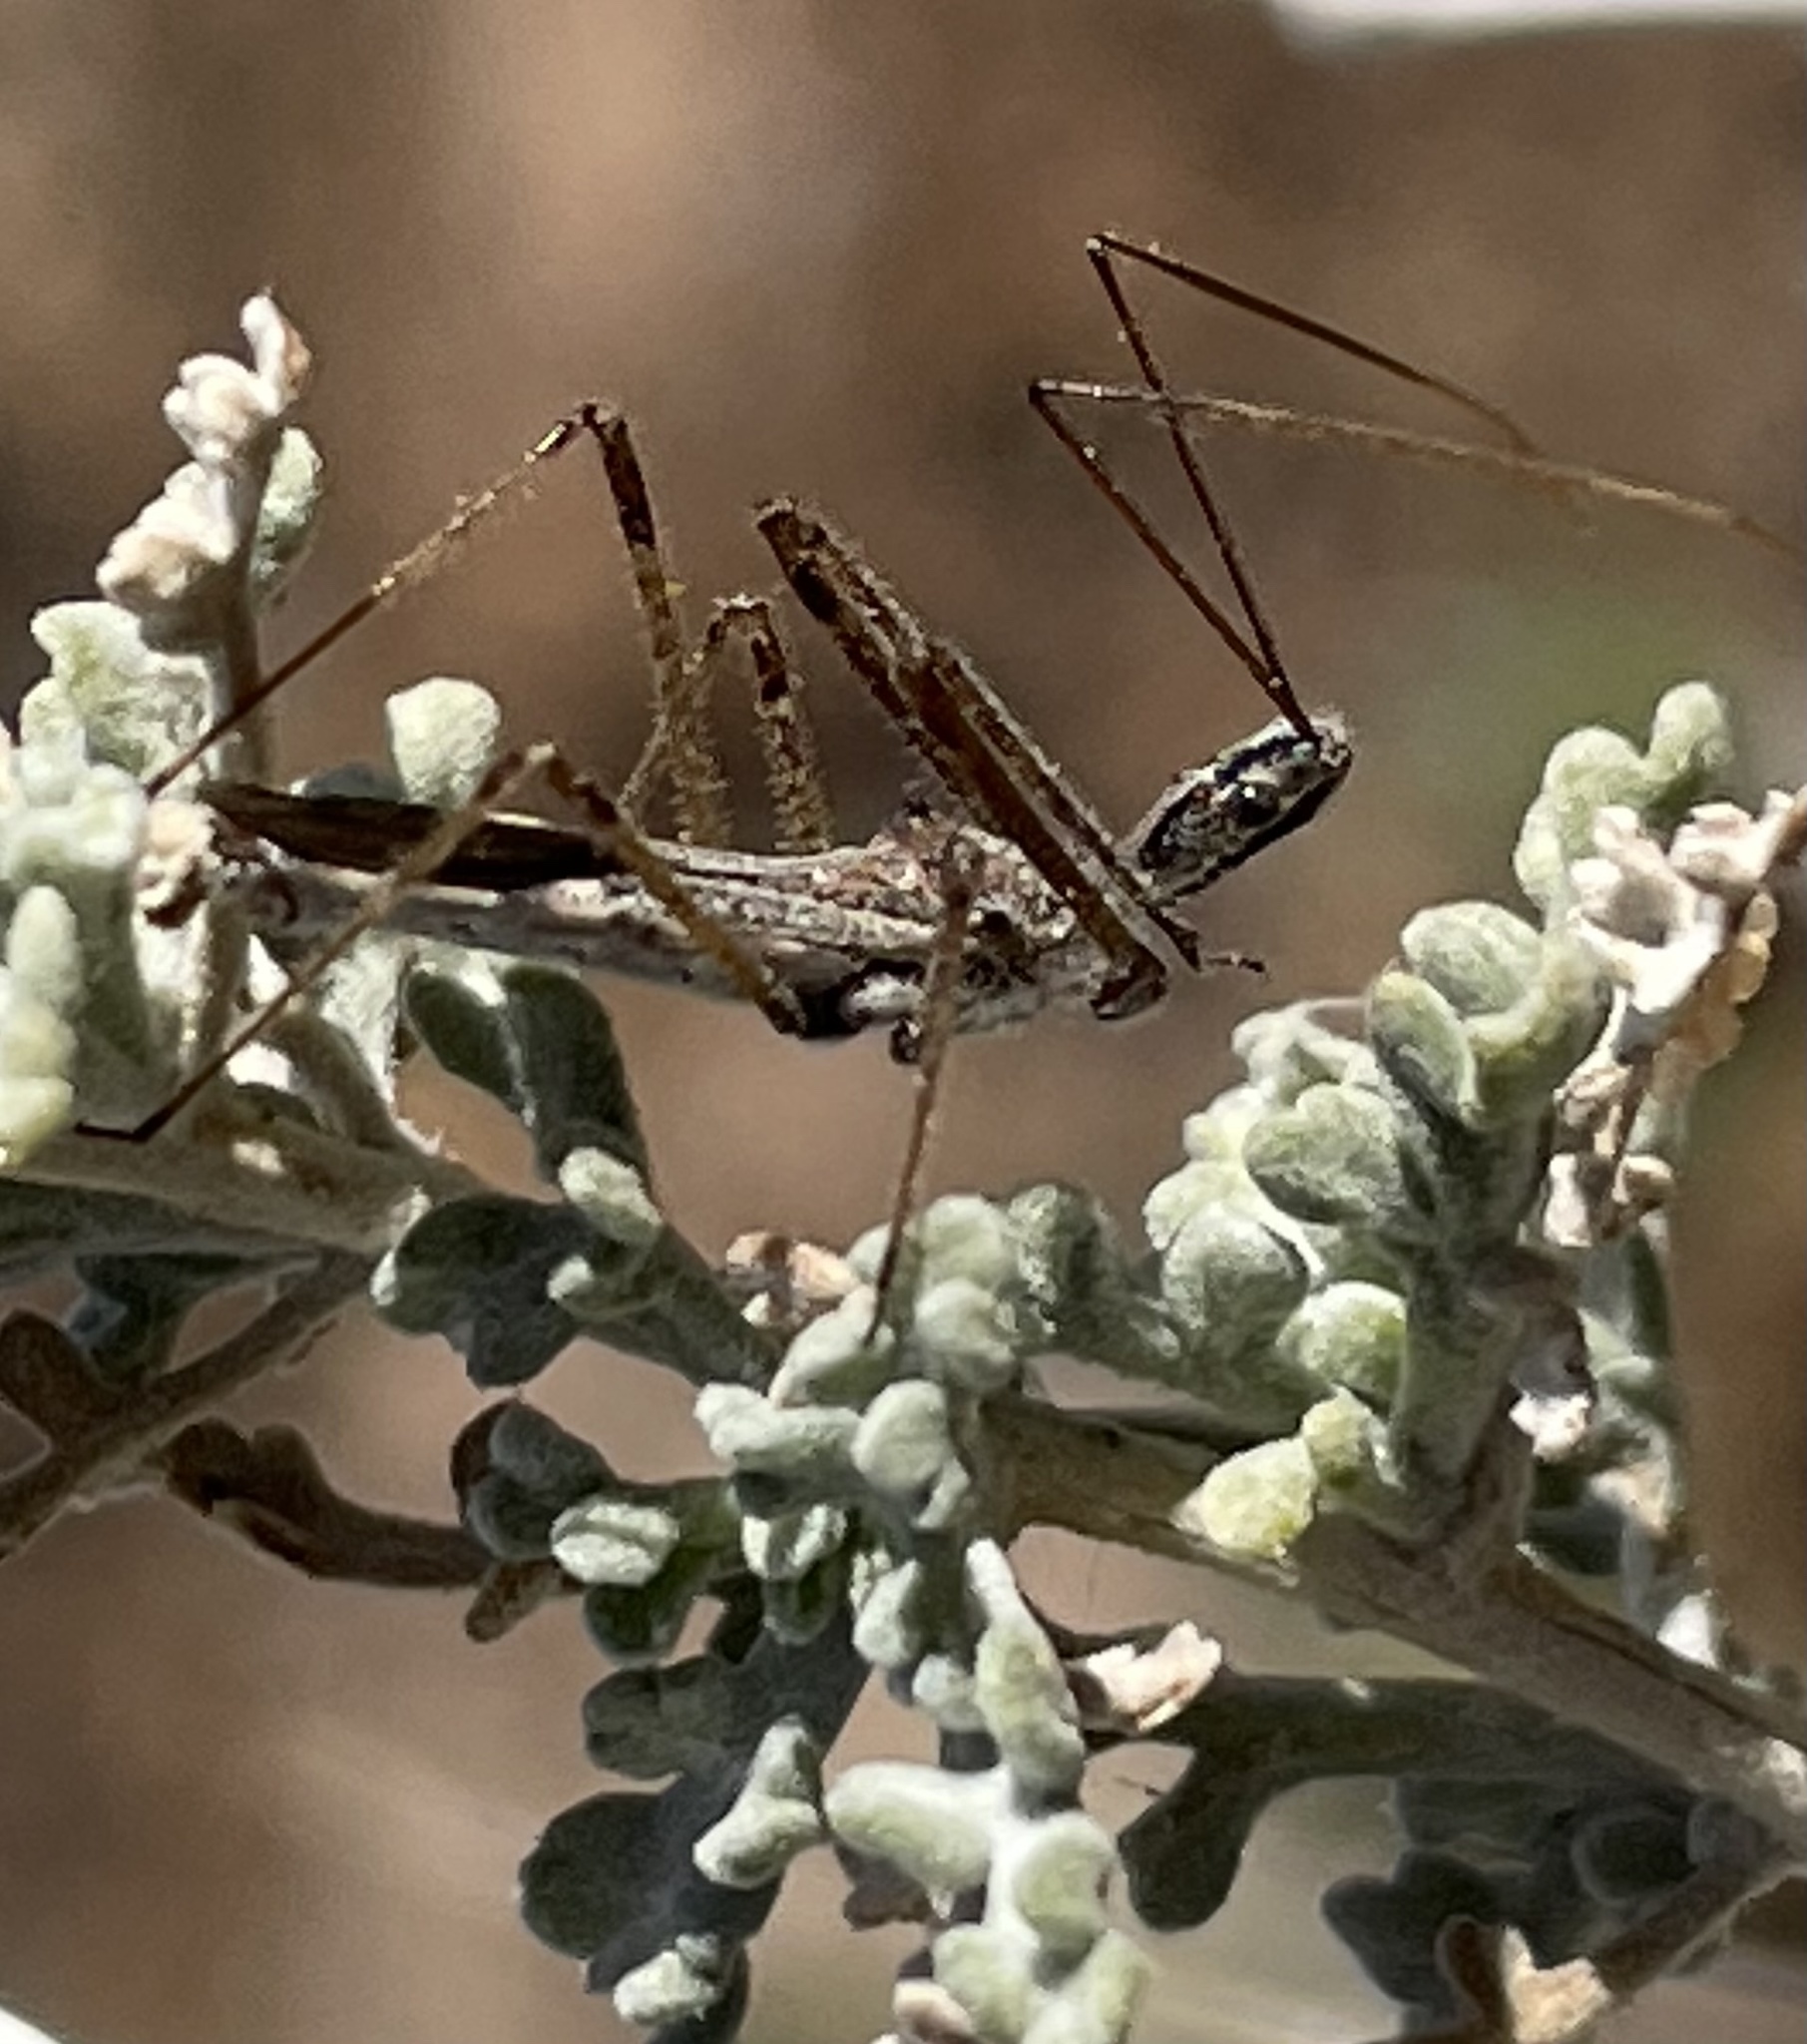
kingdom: Animalia
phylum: Arthropoda
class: Insecta
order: Hemiptera
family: Reduviidae
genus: Zelus
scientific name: Zelus tetracanthus
